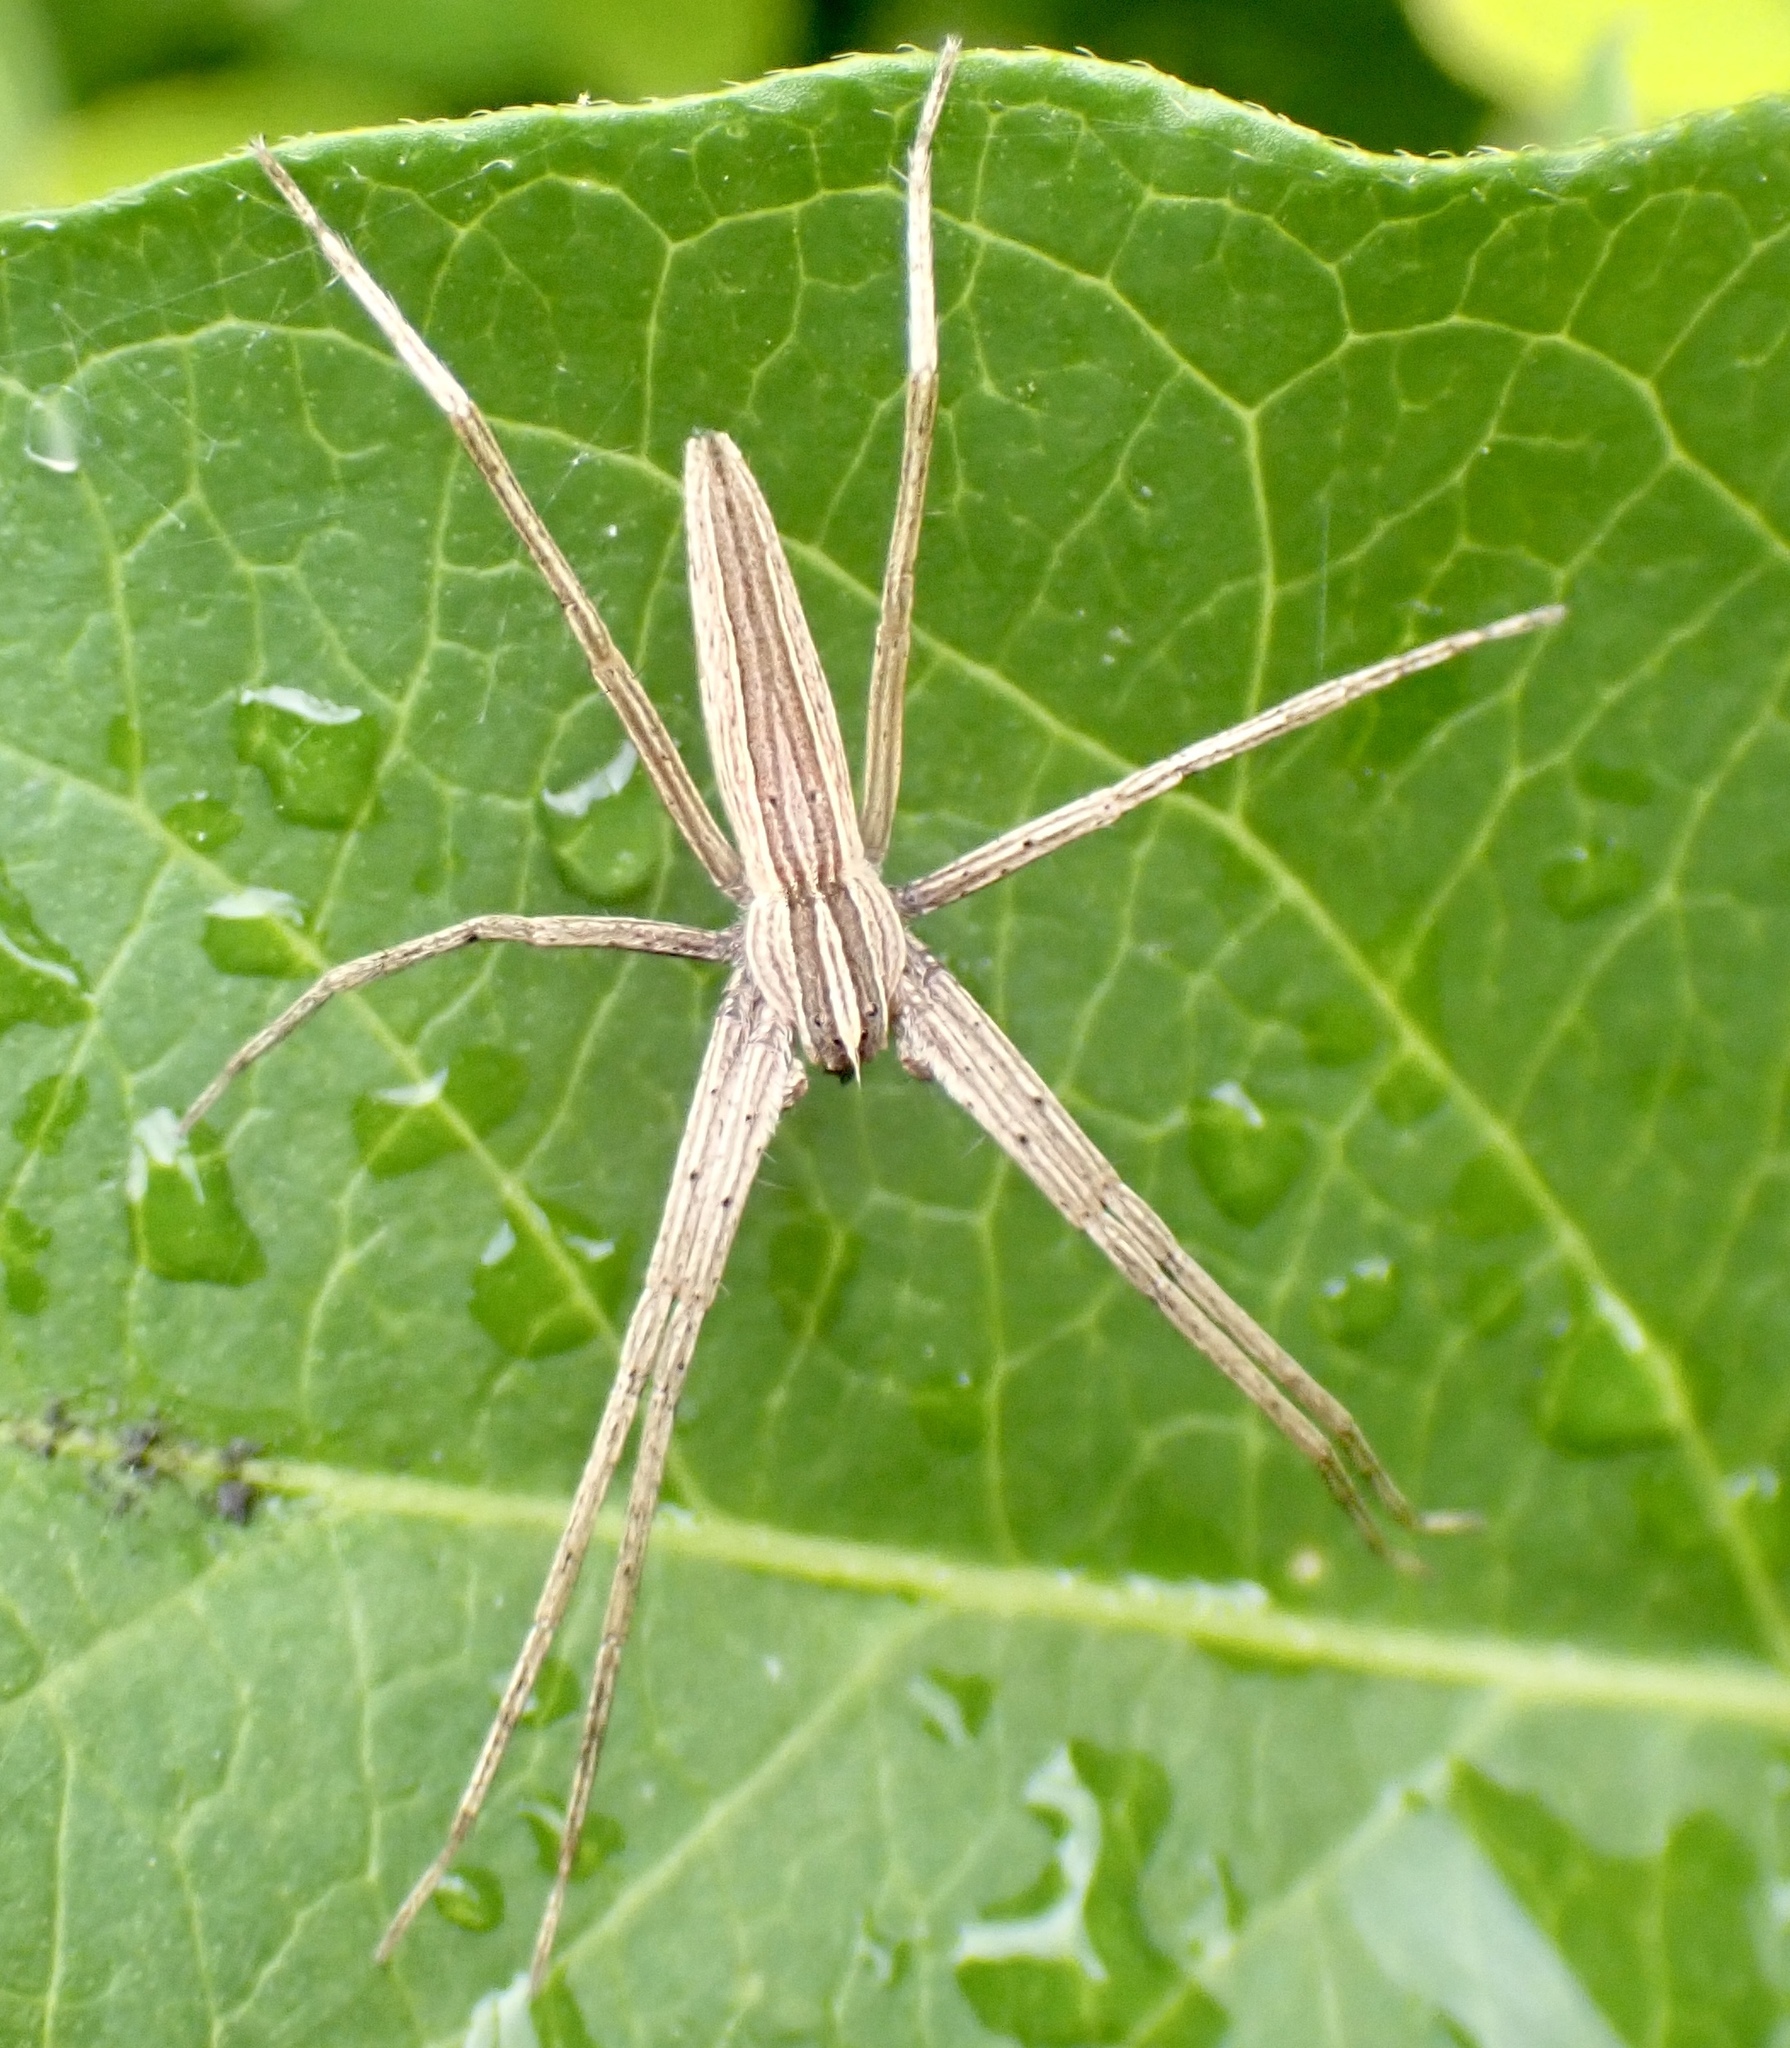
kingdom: Animalia
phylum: Arthropoda
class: Arachnida
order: Araneae
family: Pisauridae
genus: Pisaurina
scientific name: Pisaurina dubia
